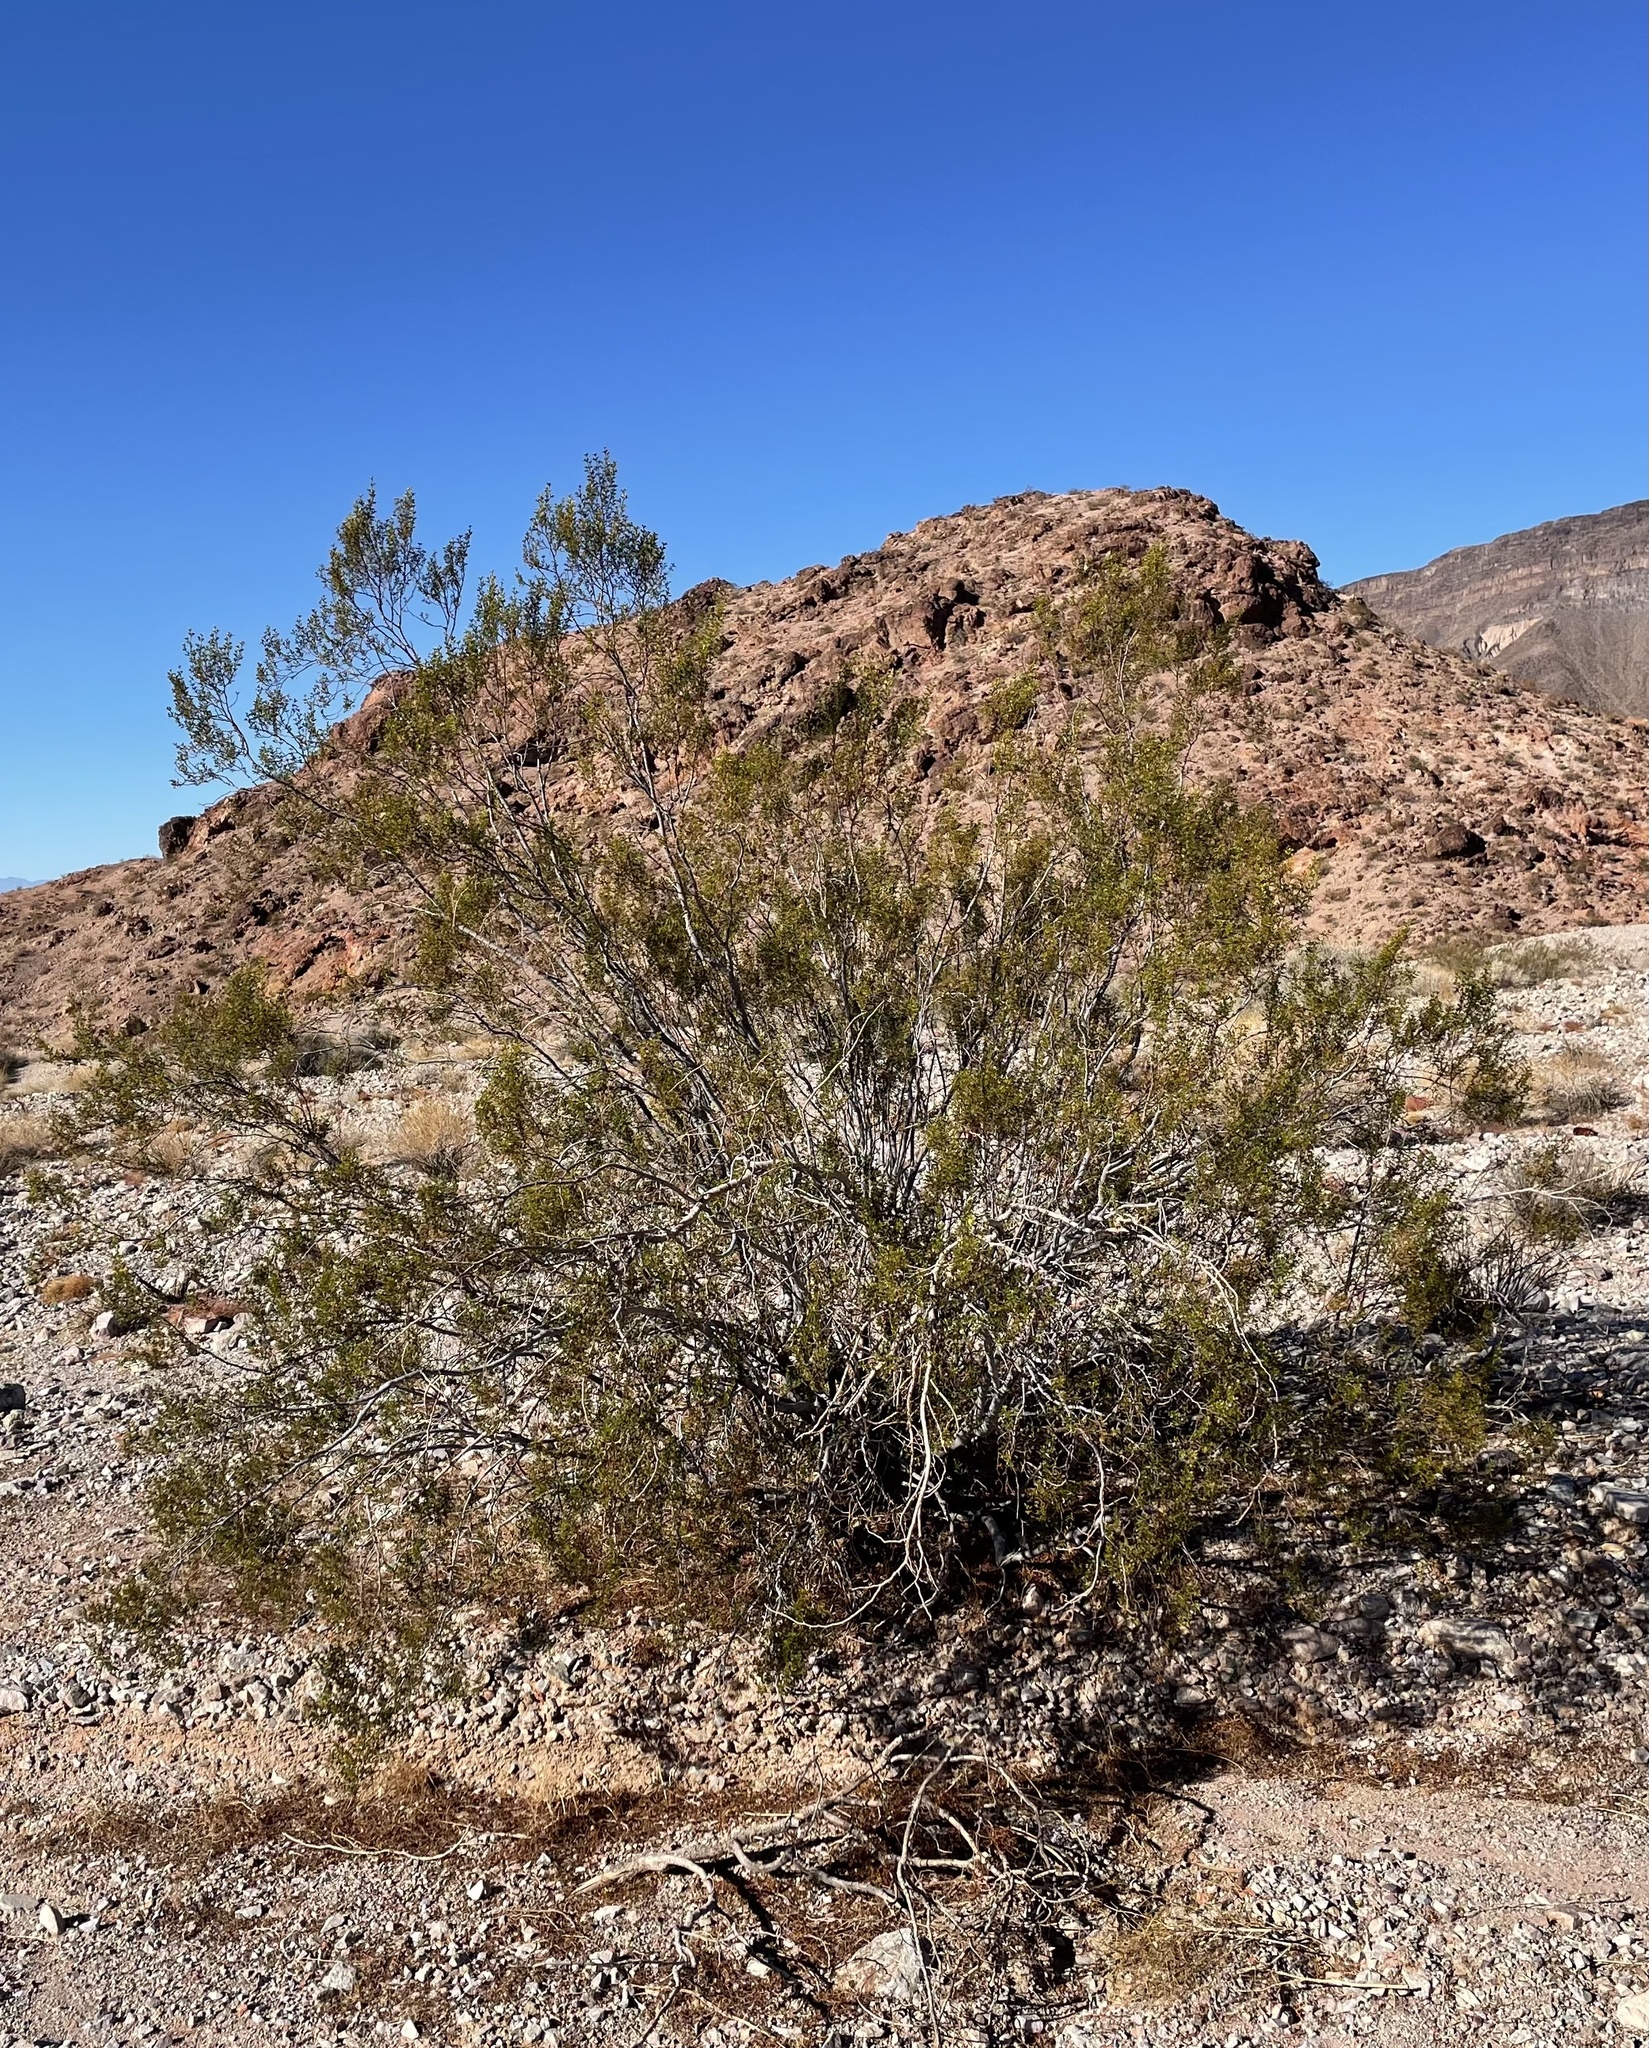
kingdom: Plantae
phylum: Tracheophyta
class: Magnoliopsida
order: Zygophyllales
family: Zygophyllaceae
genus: Larrea
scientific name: Larrea tridentata
